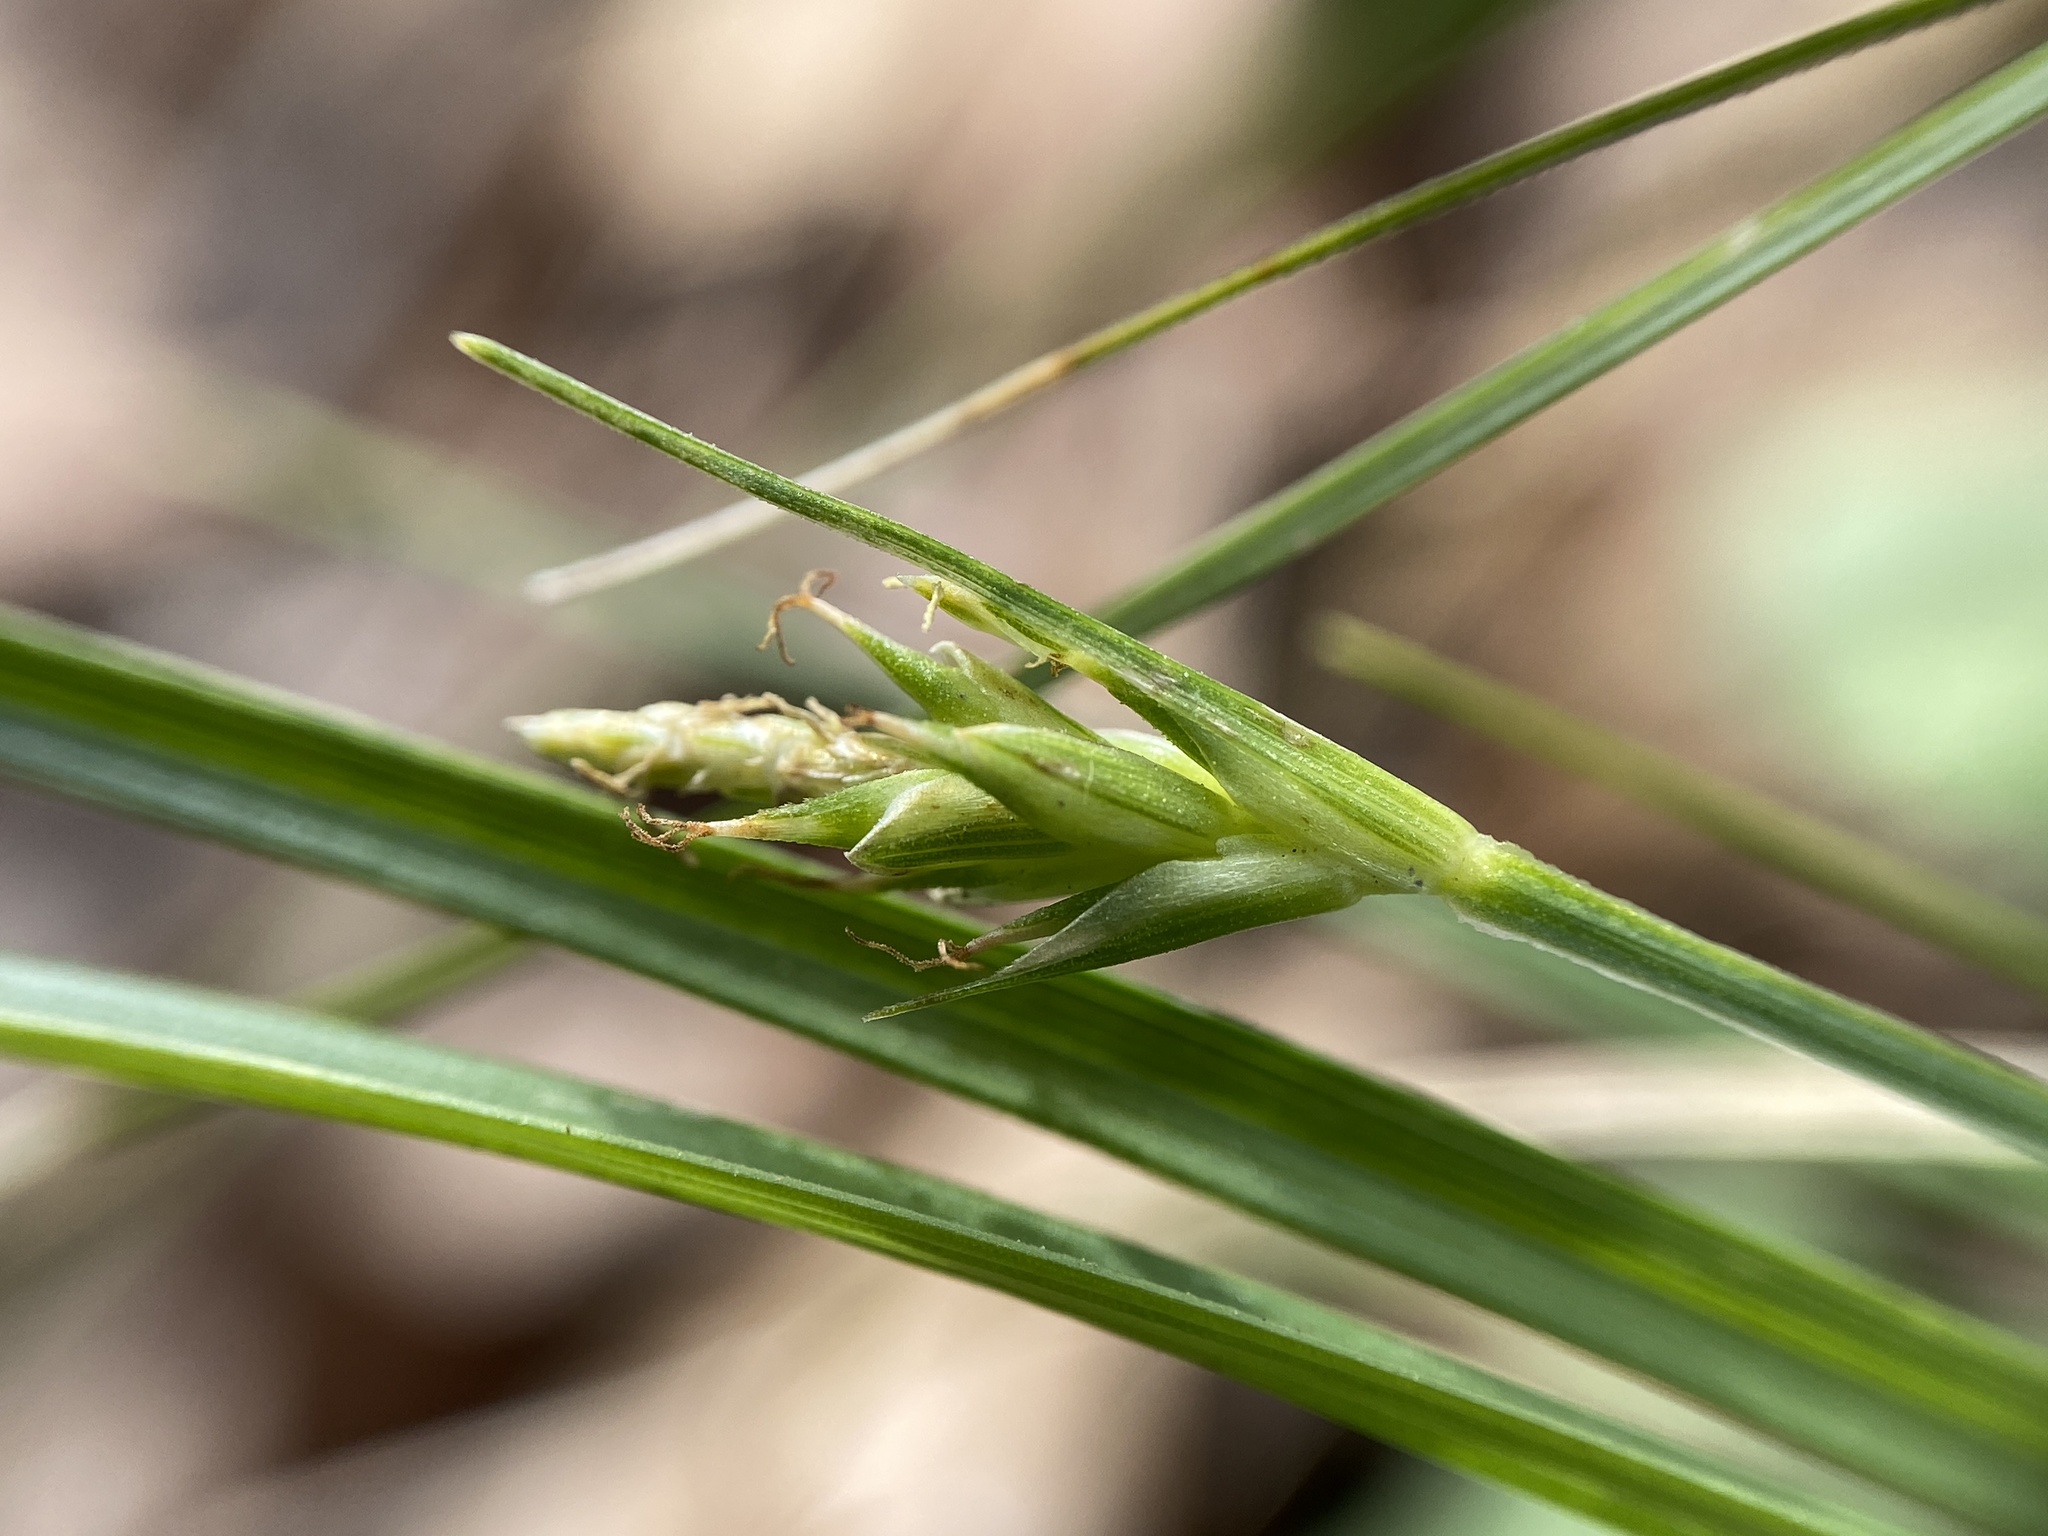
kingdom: Plantae
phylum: Tracheophyta
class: Liliopsida
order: Poales
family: Cyperaceae
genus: Carex
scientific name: Carex willdenowii
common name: Willdenow's sedge
